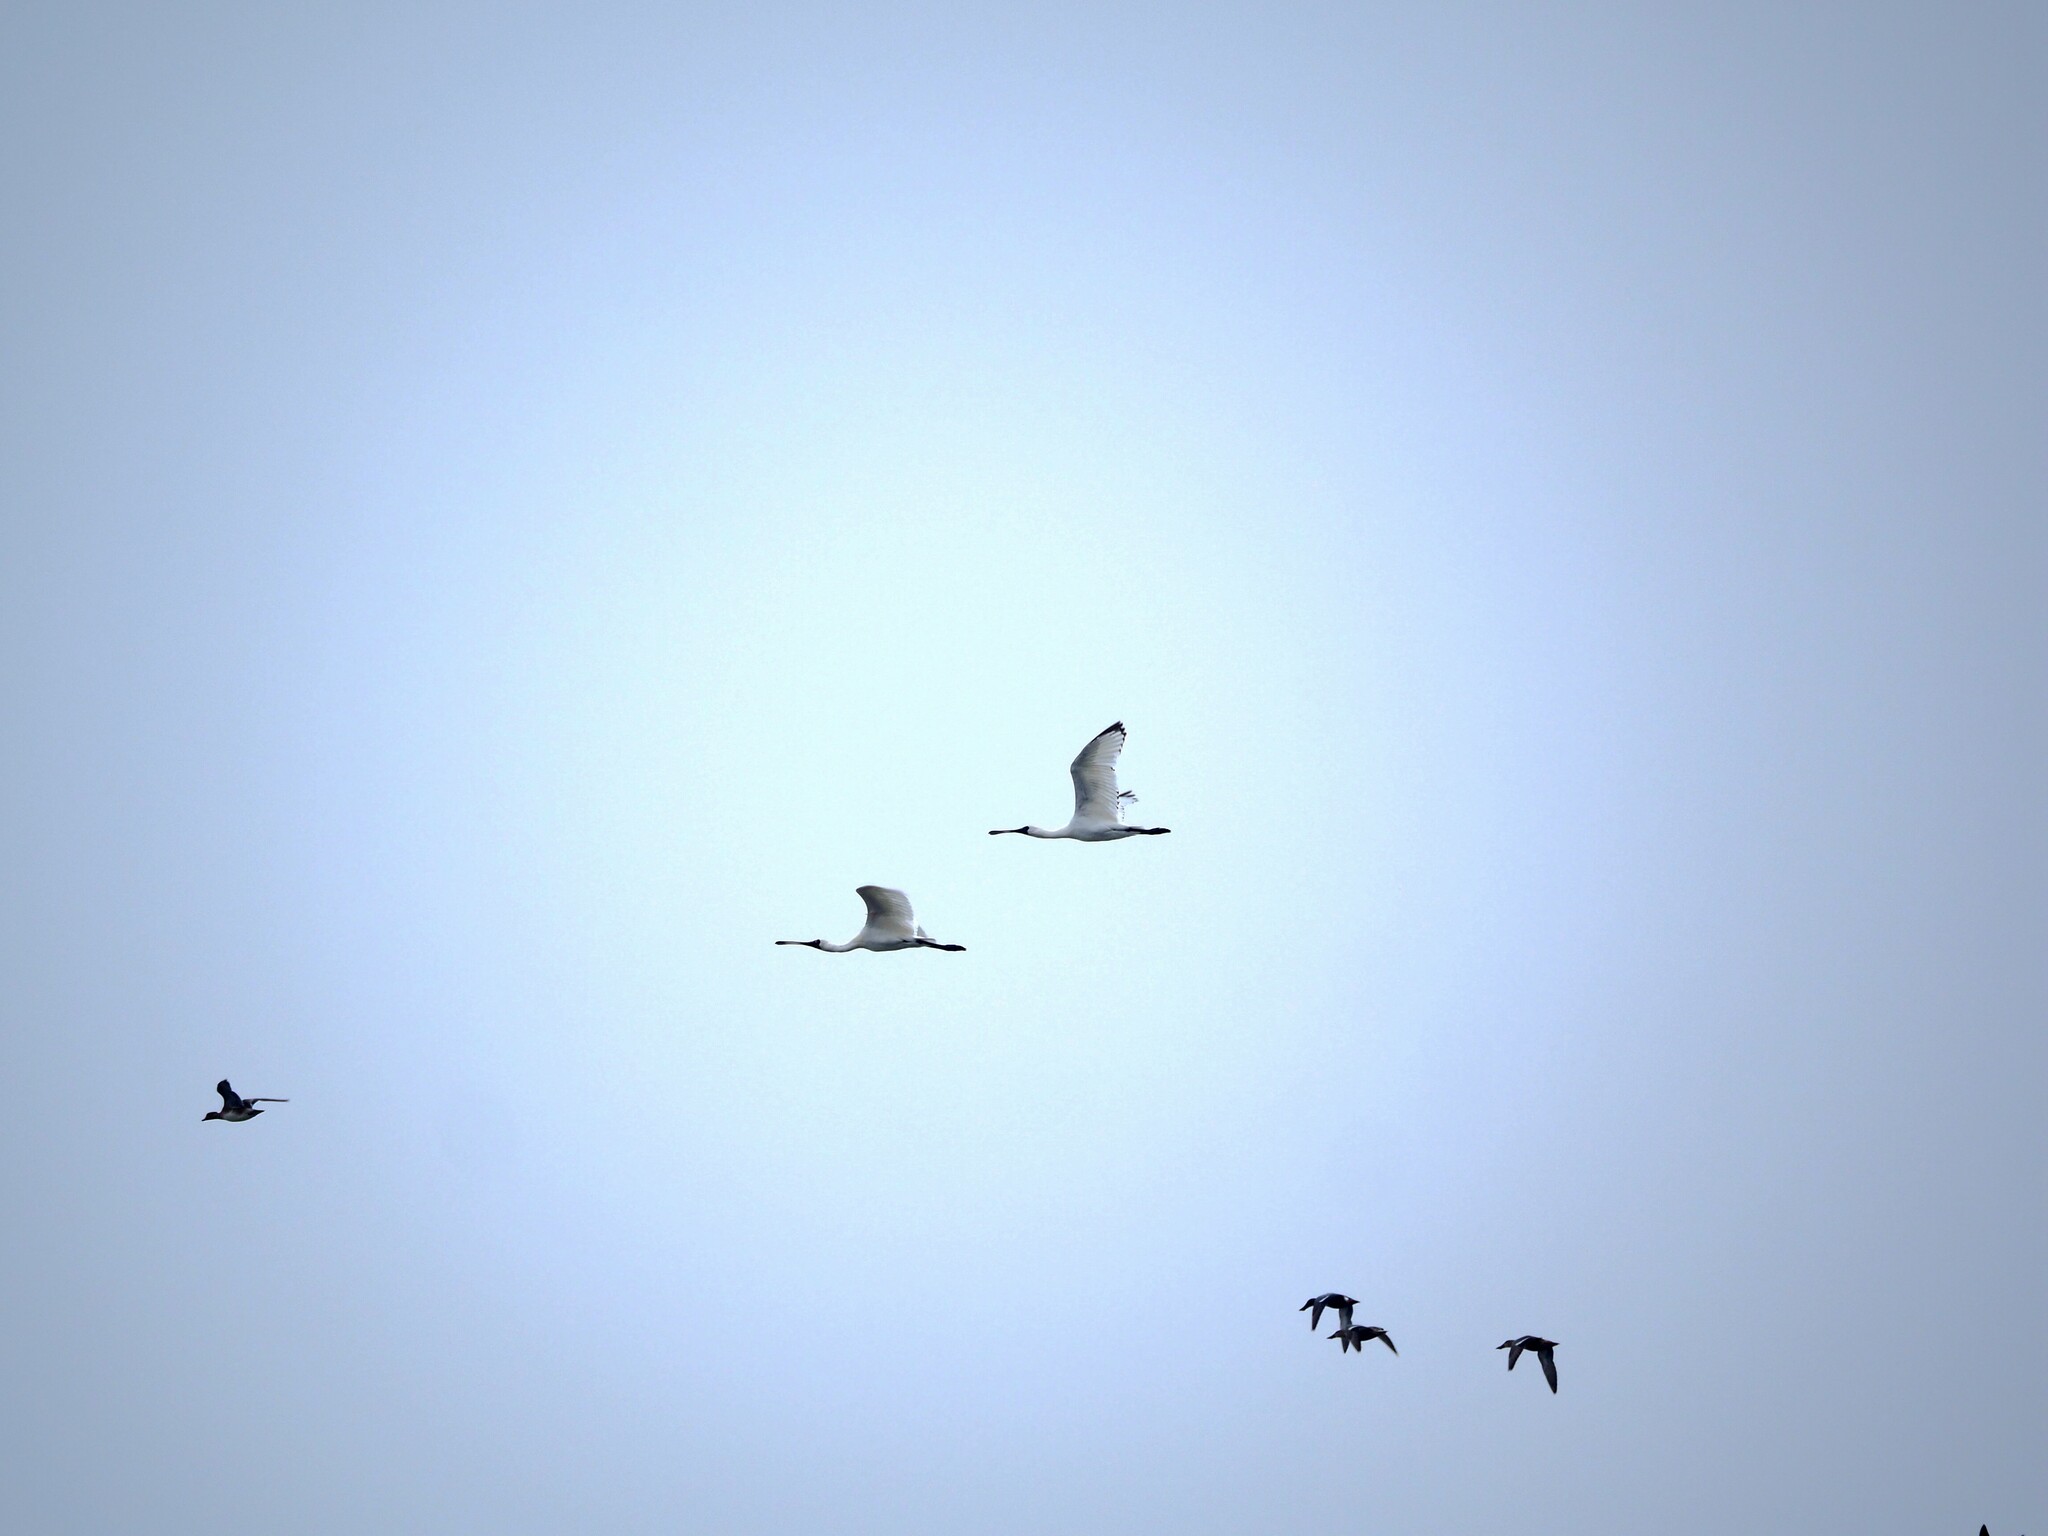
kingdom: Animalia
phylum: Chordata
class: Aves
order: Pelecaniformes
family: Threskiornithidae
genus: Platalea
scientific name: Platalea minor
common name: Black-faced spoonbill
